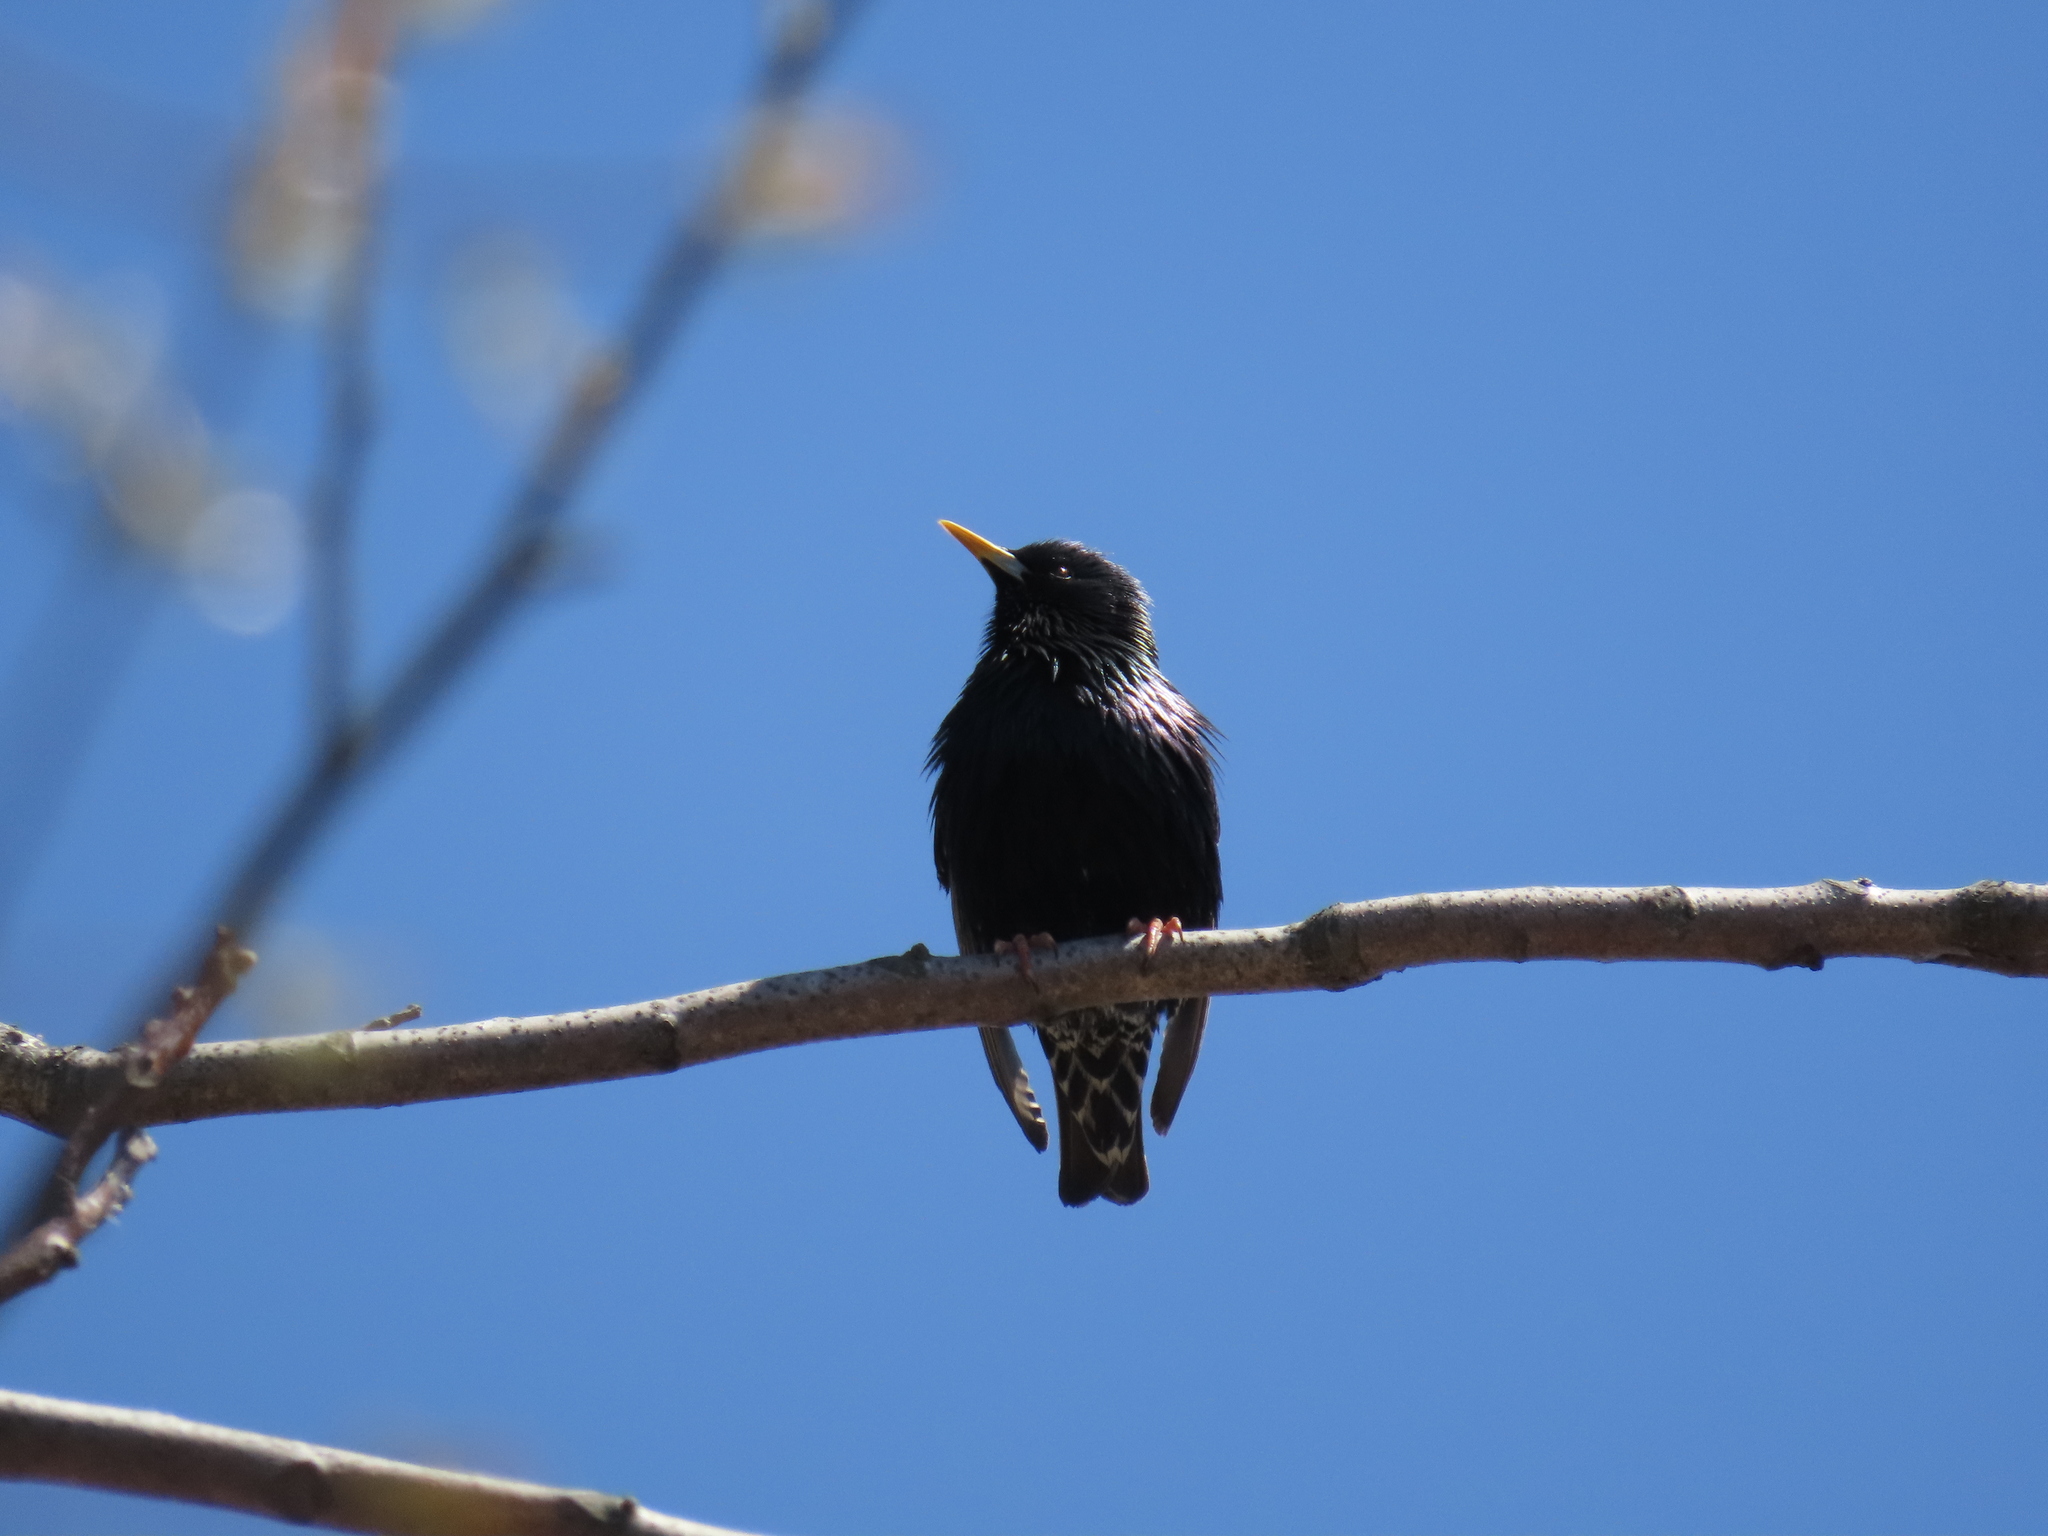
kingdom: Animalia
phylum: Chordata
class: Aves
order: Passeriformes
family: Sturnidae
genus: Sturnus
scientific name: Sturnus vulgaris
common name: Common starling
